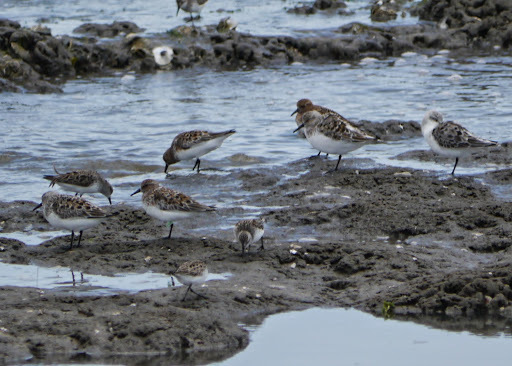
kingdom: Animalia
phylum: Chordata
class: Aves
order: Charadriiformes
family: Scolopacidae
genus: Calidris
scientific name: Calidris alba
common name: Sanderling
